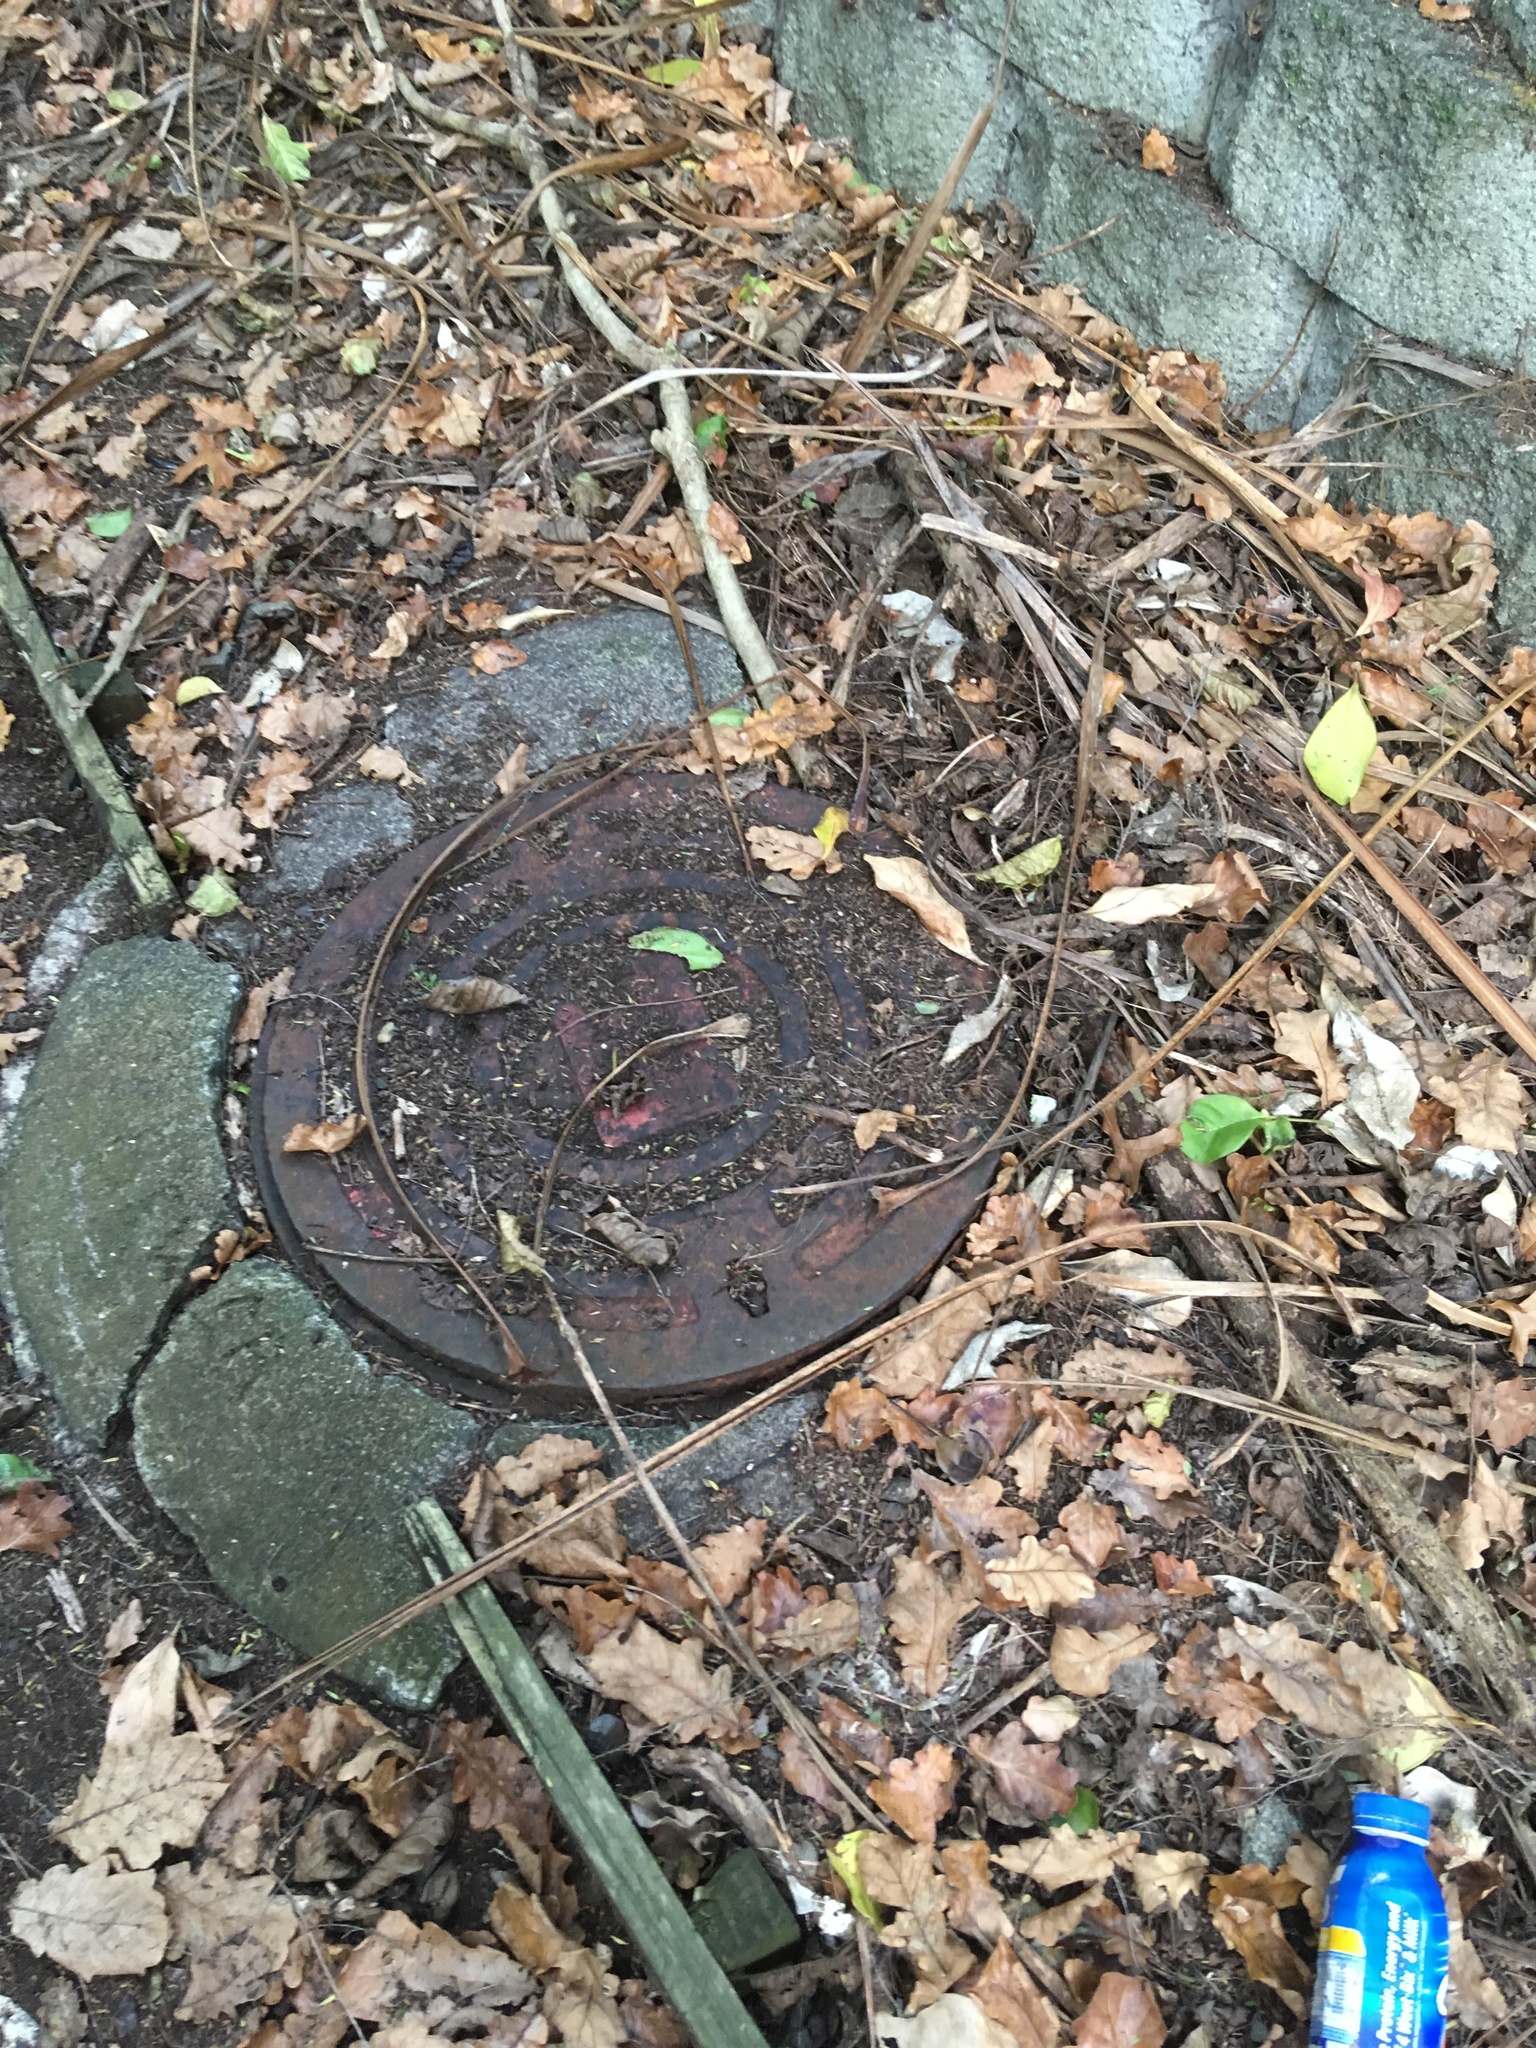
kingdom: Plantae
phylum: Tracheophyta
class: Magnoliopsida
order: Malpighiales
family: Violaceae
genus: Melicytus
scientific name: Melicytus ramiflorus
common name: Mahoe
